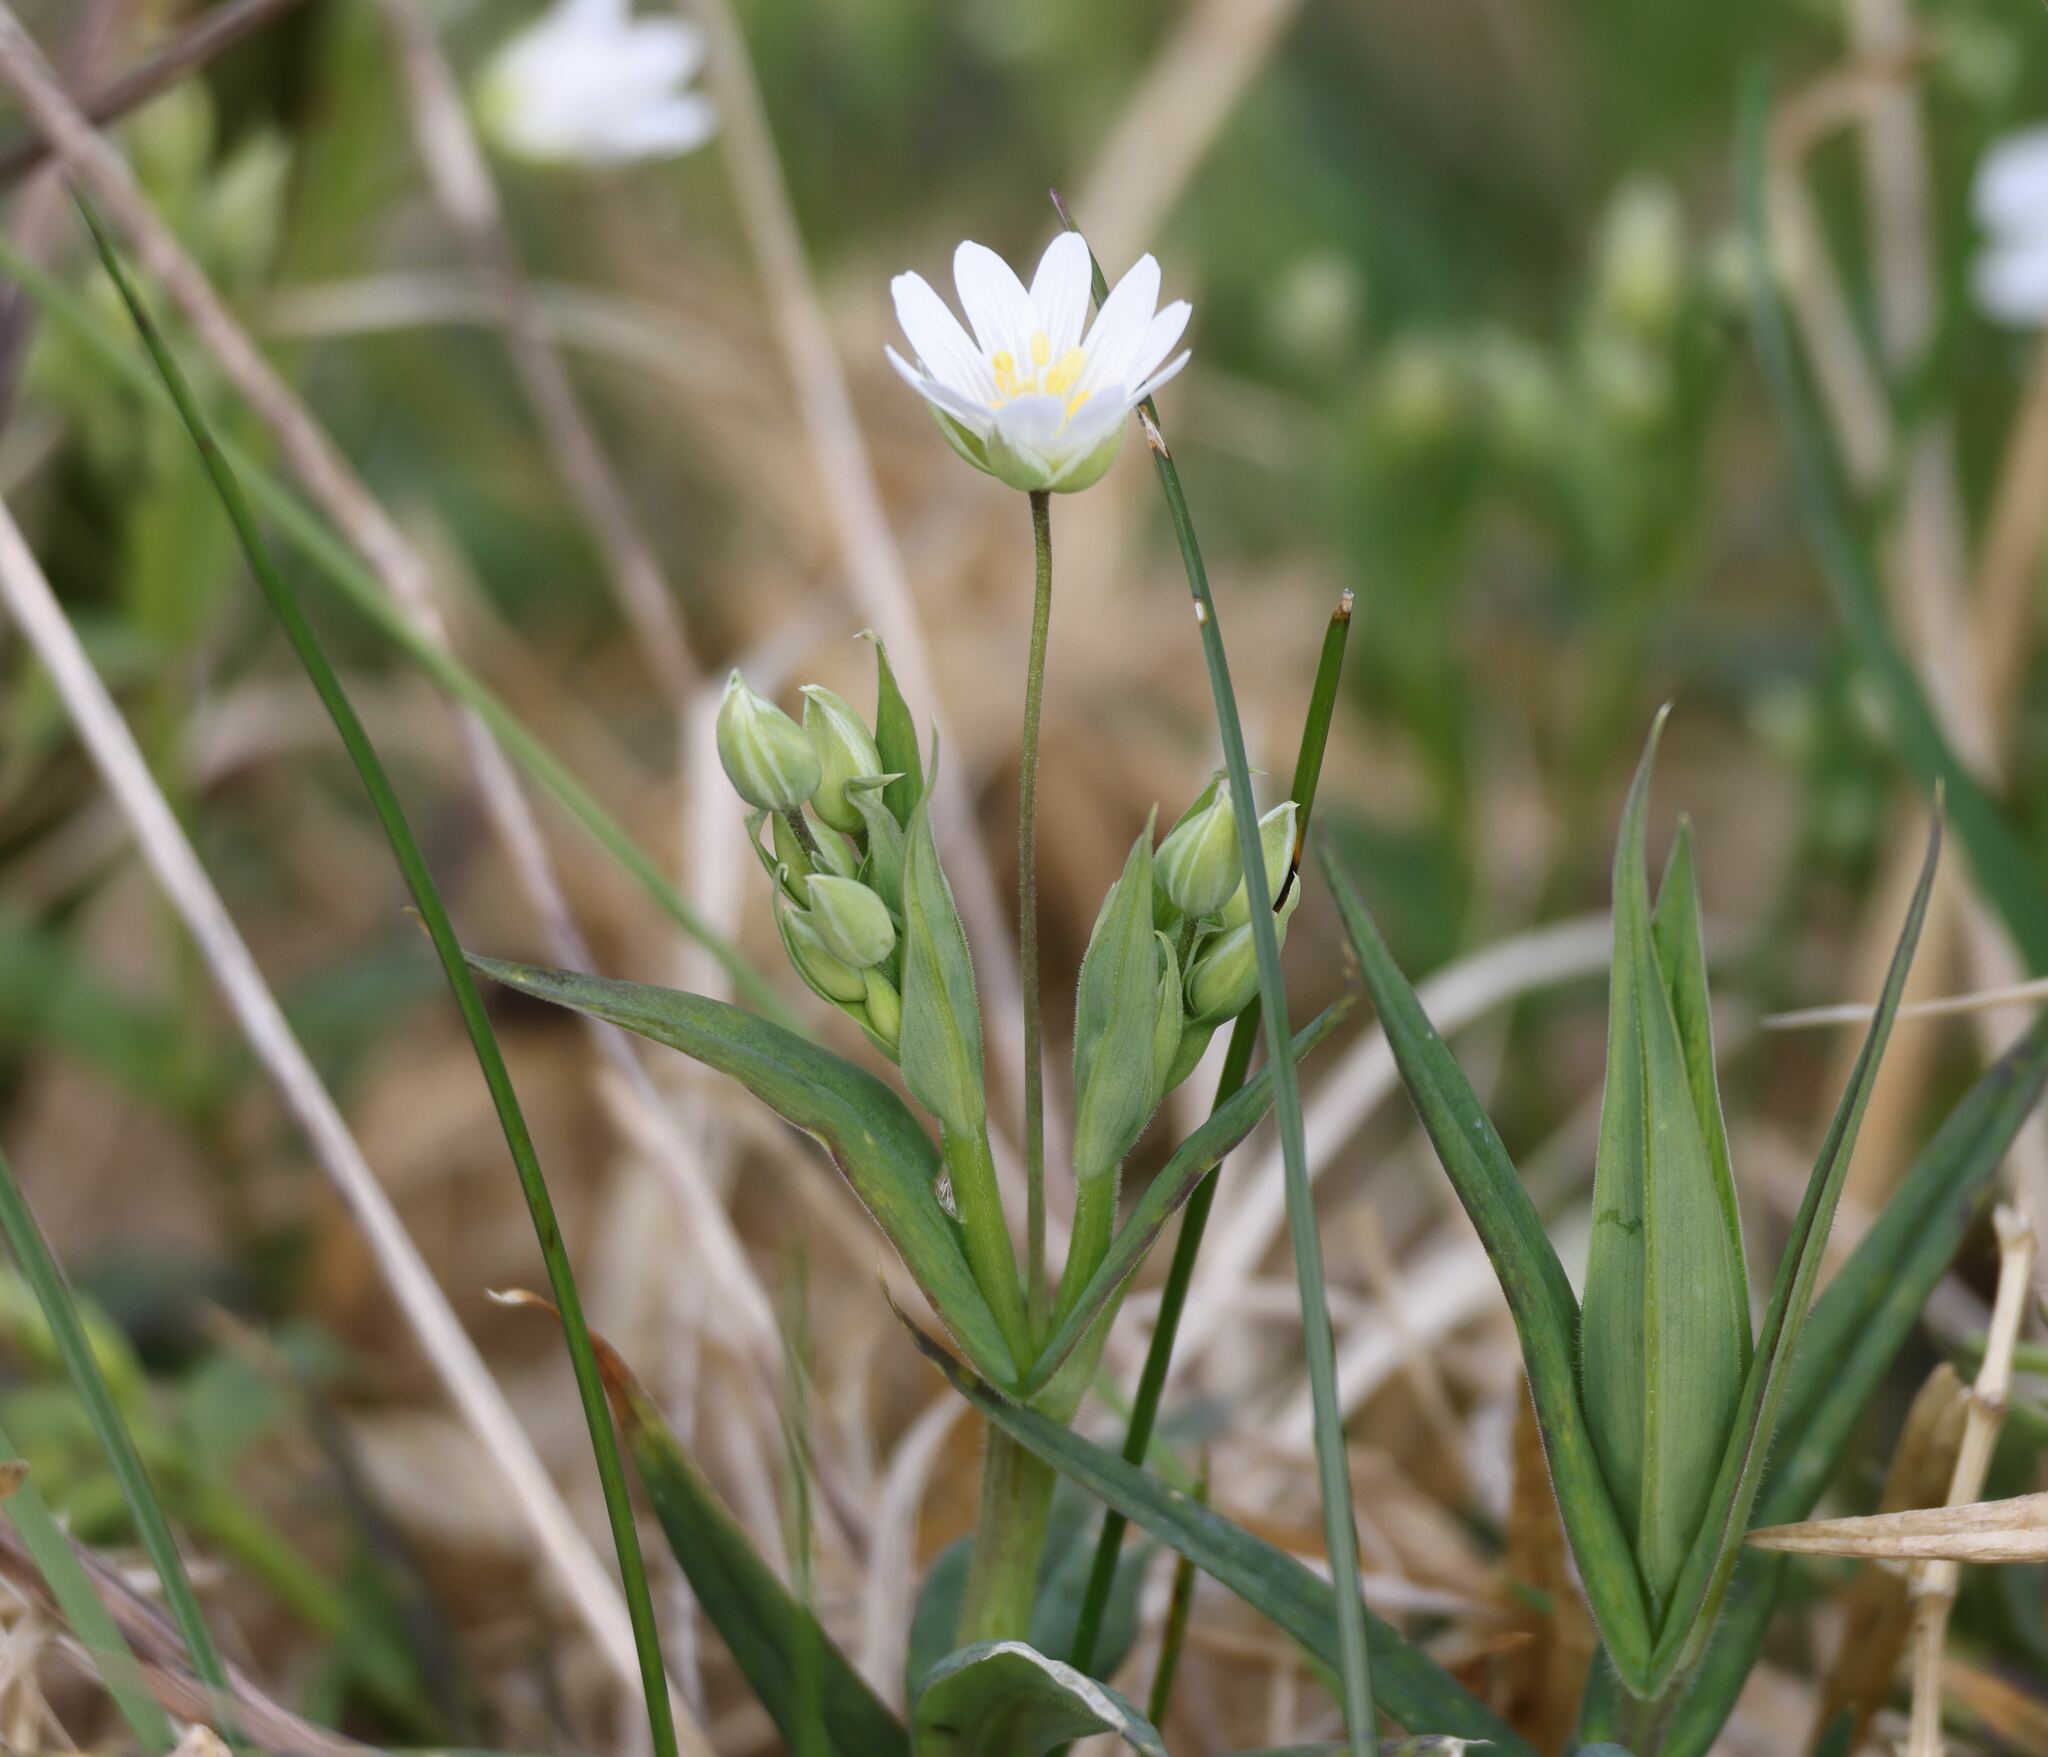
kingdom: Plantae
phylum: Tracheophyta
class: Magnoliopsida
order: Caryophyllales
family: Caryophyllaceae
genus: Rabelera
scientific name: Rabelera holostea
